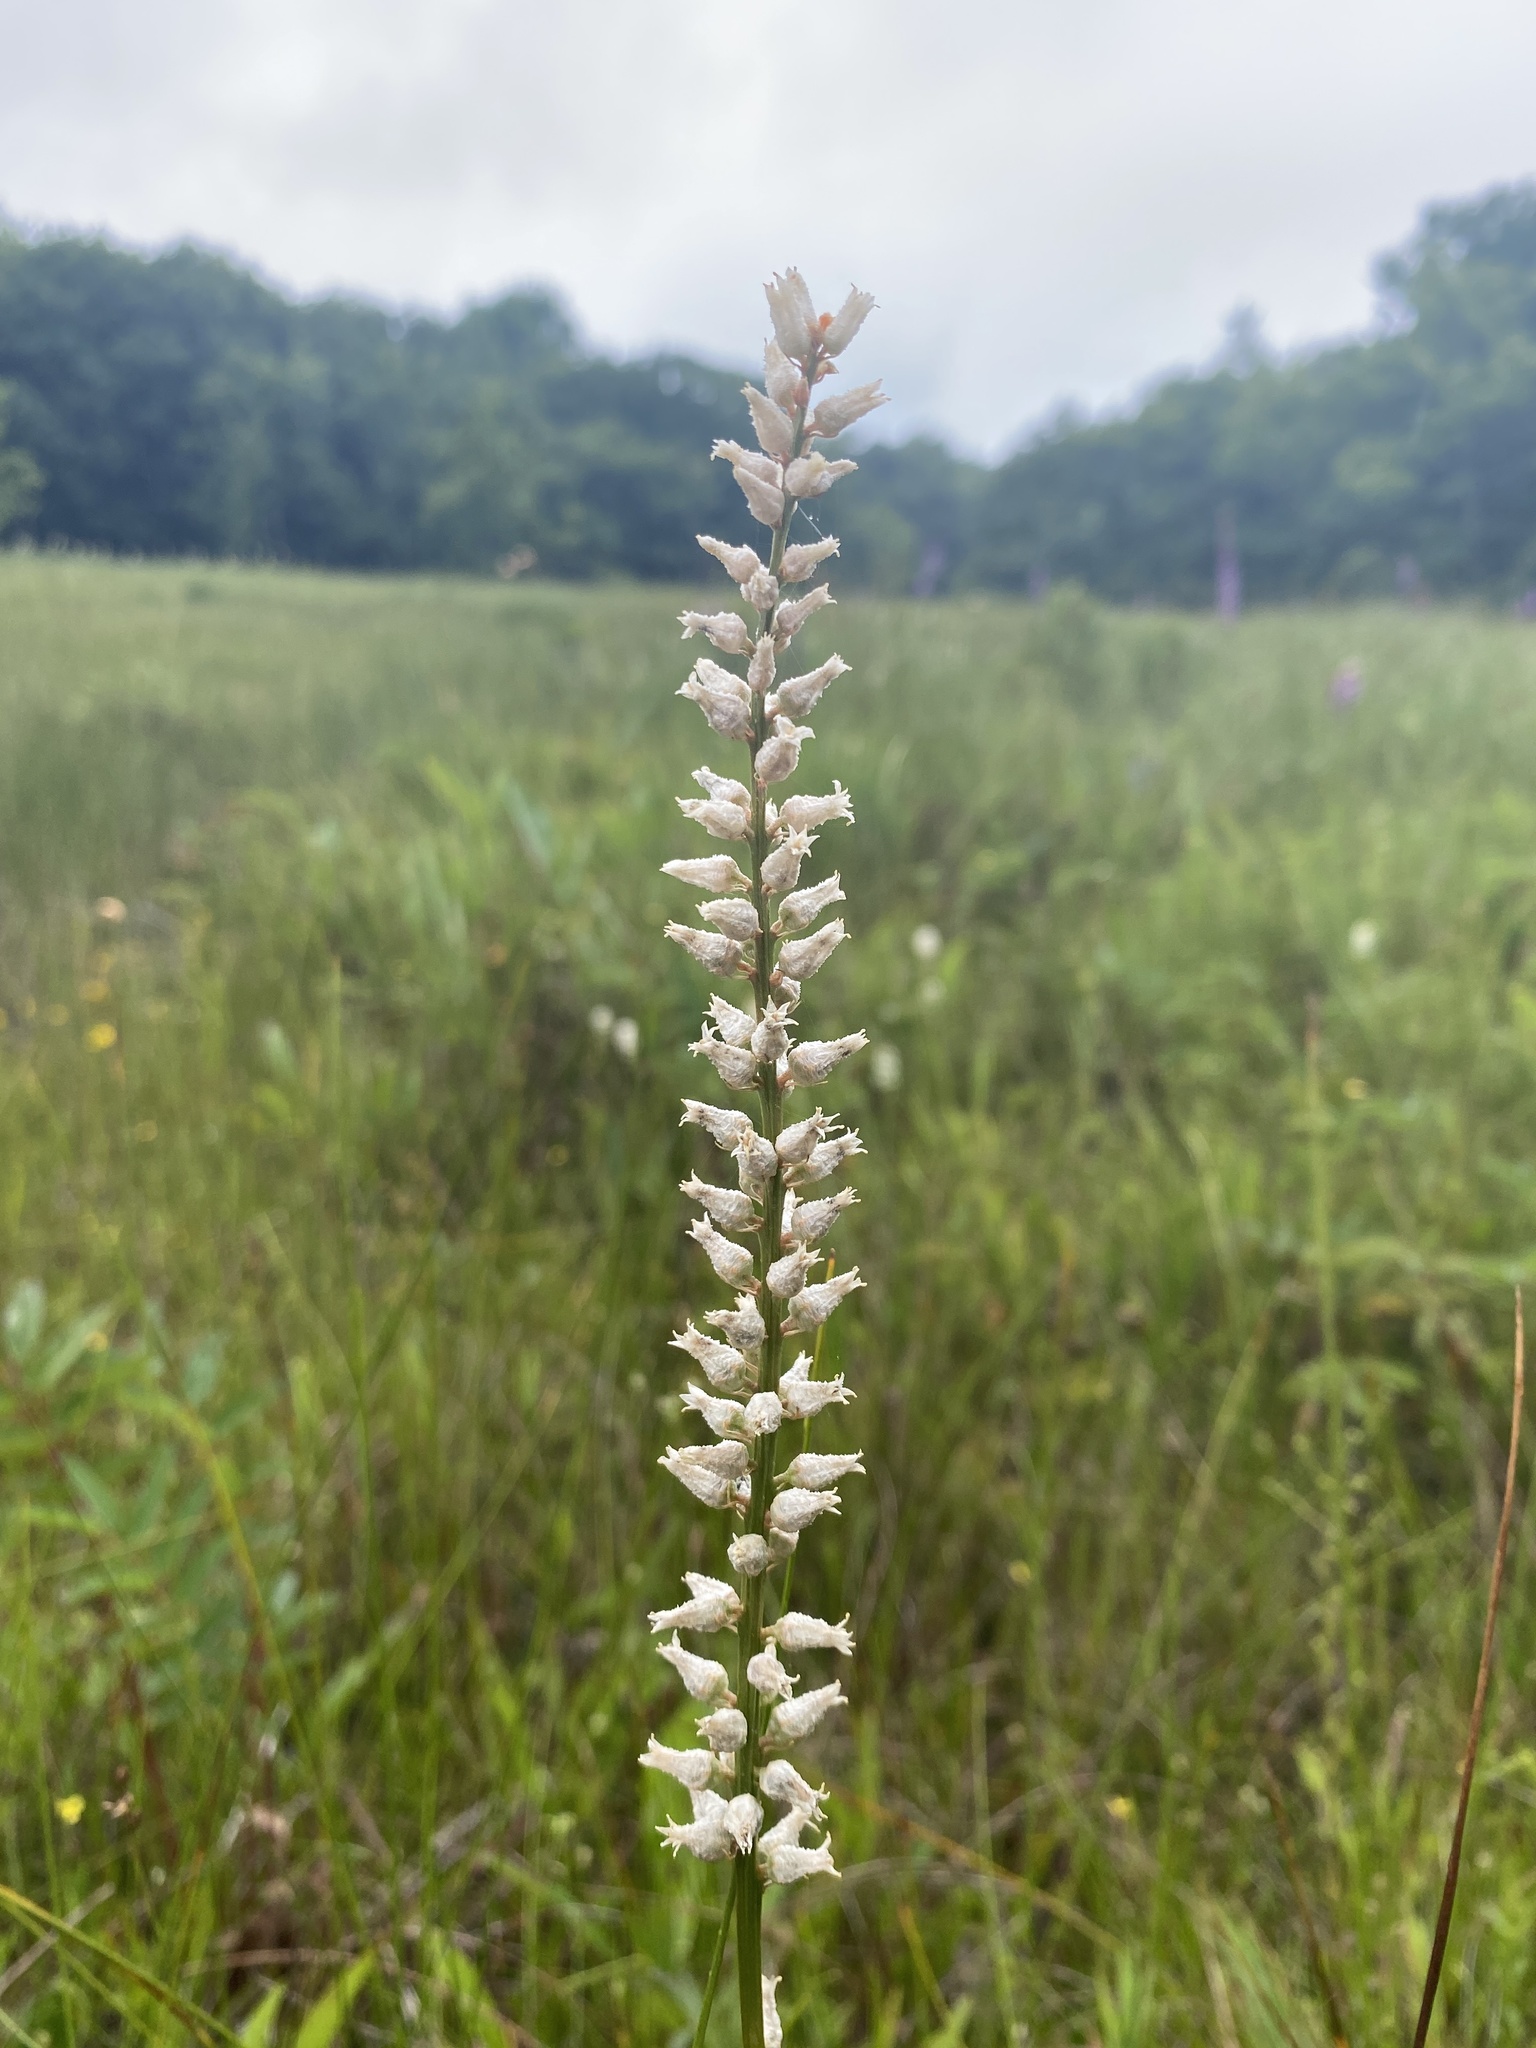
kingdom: Plantae
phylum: Tracheophyta
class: Liliopsida
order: Dioscoreales
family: Nartheciaceae
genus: Aletris
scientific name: Aletris farinosa
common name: Colicroot
